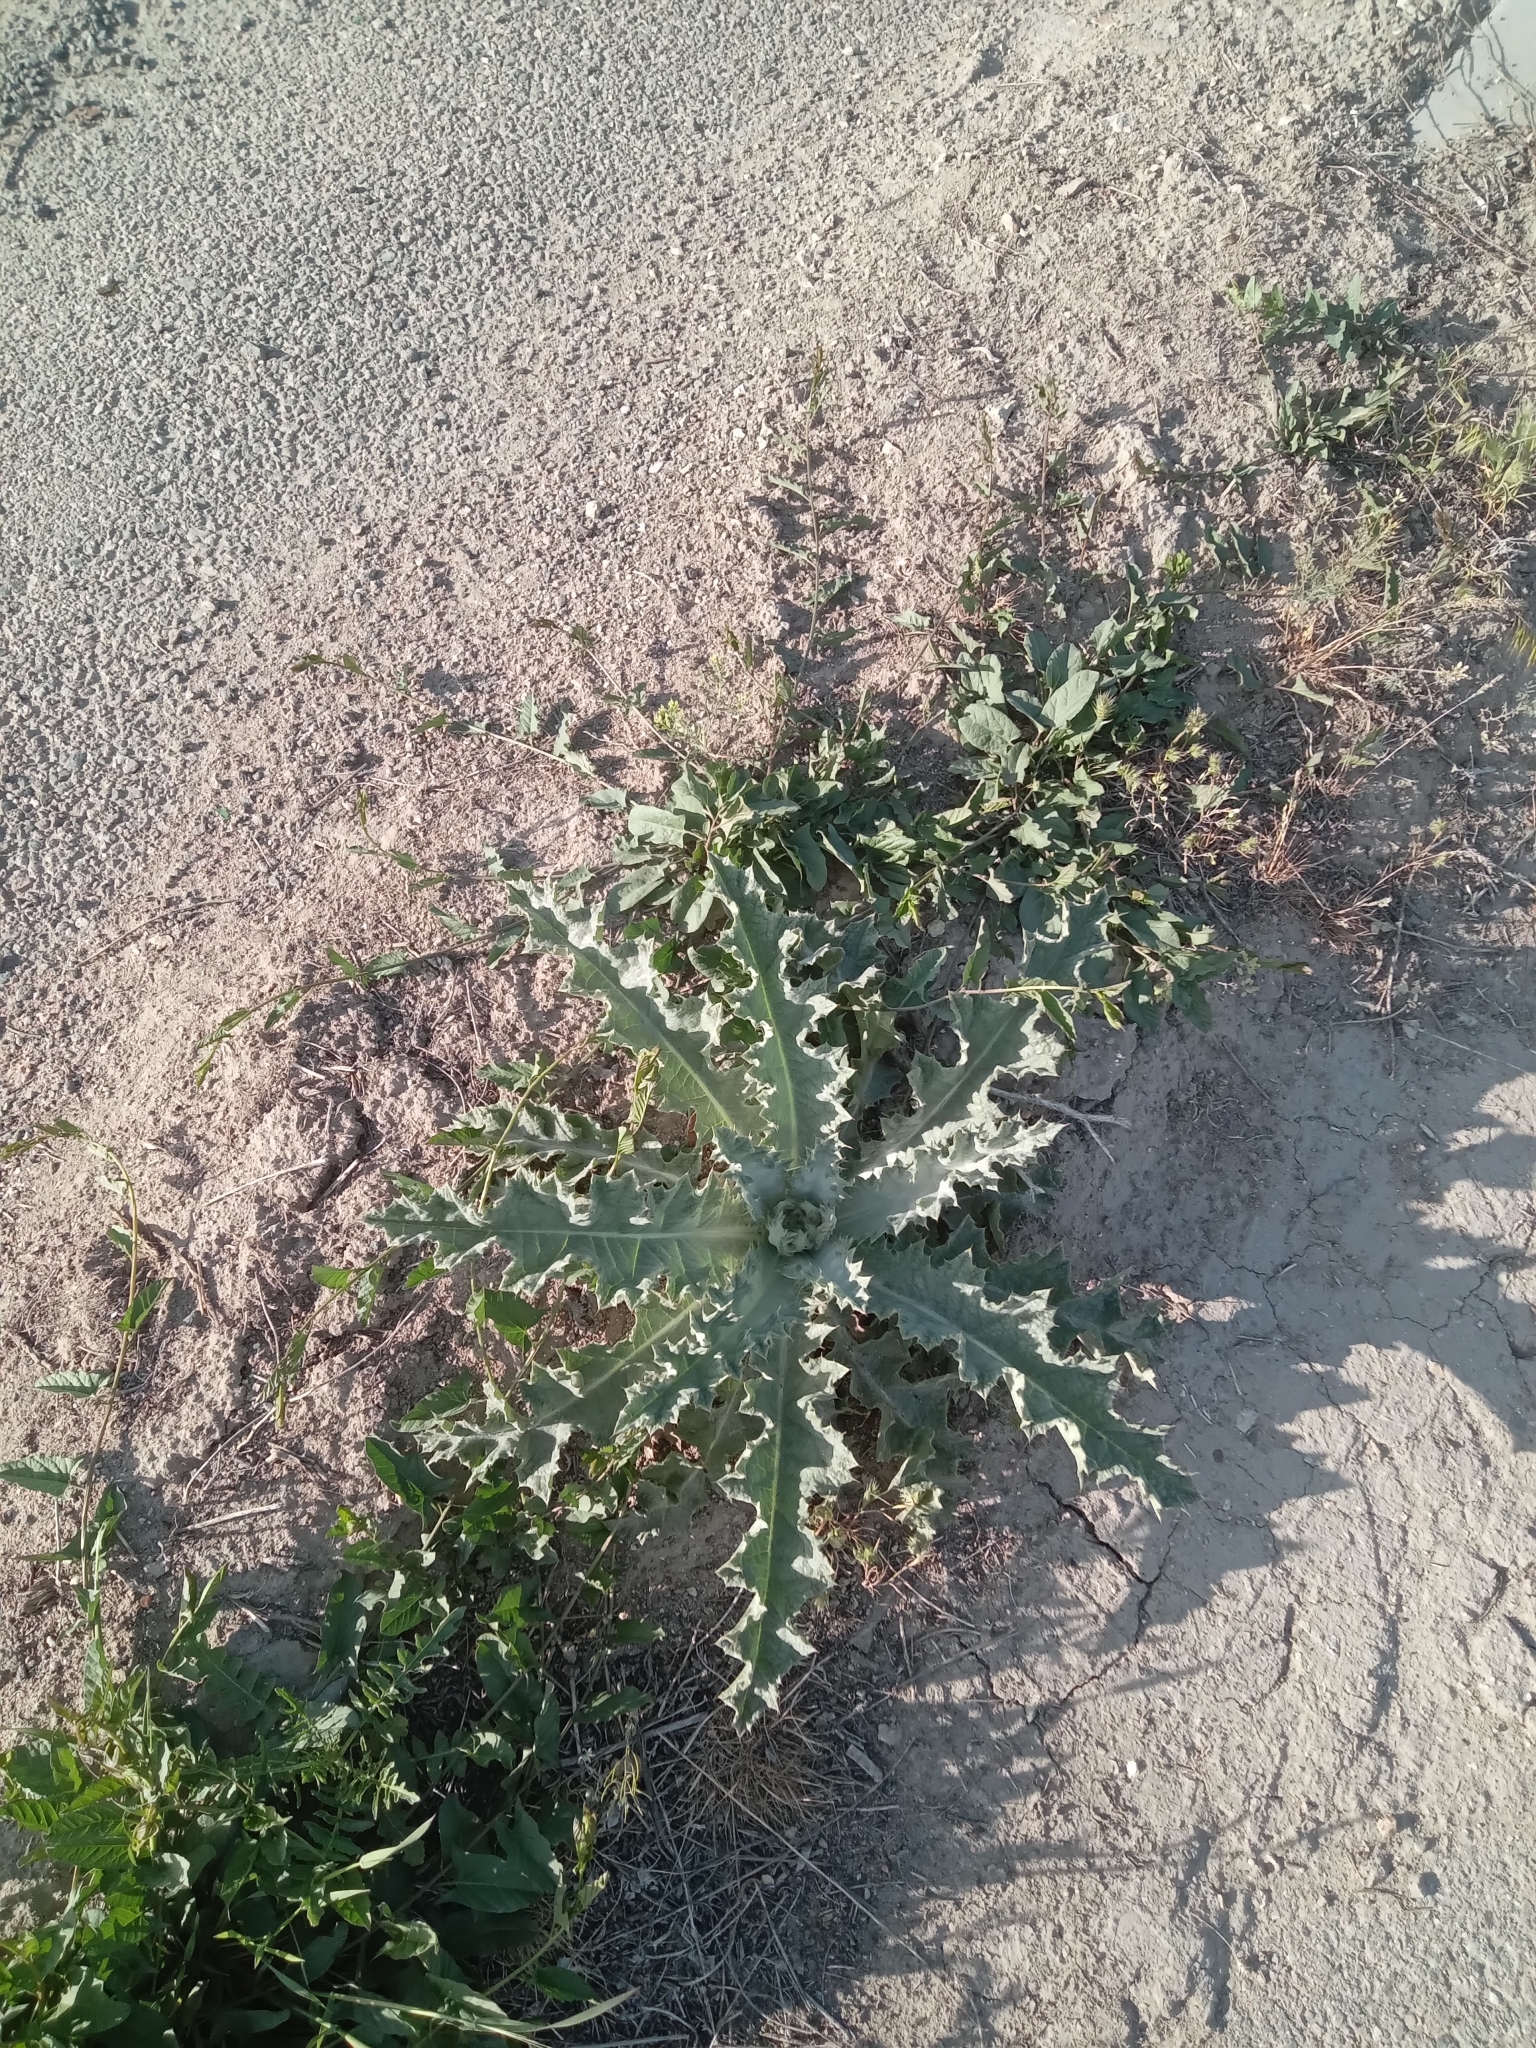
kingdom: Plantae
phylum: Tracheophyta
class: Magnoliopsida
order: Asterales
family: Asteraceae
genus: Onopordum
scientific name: Onopordum acanthium
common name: Scotch thistle
